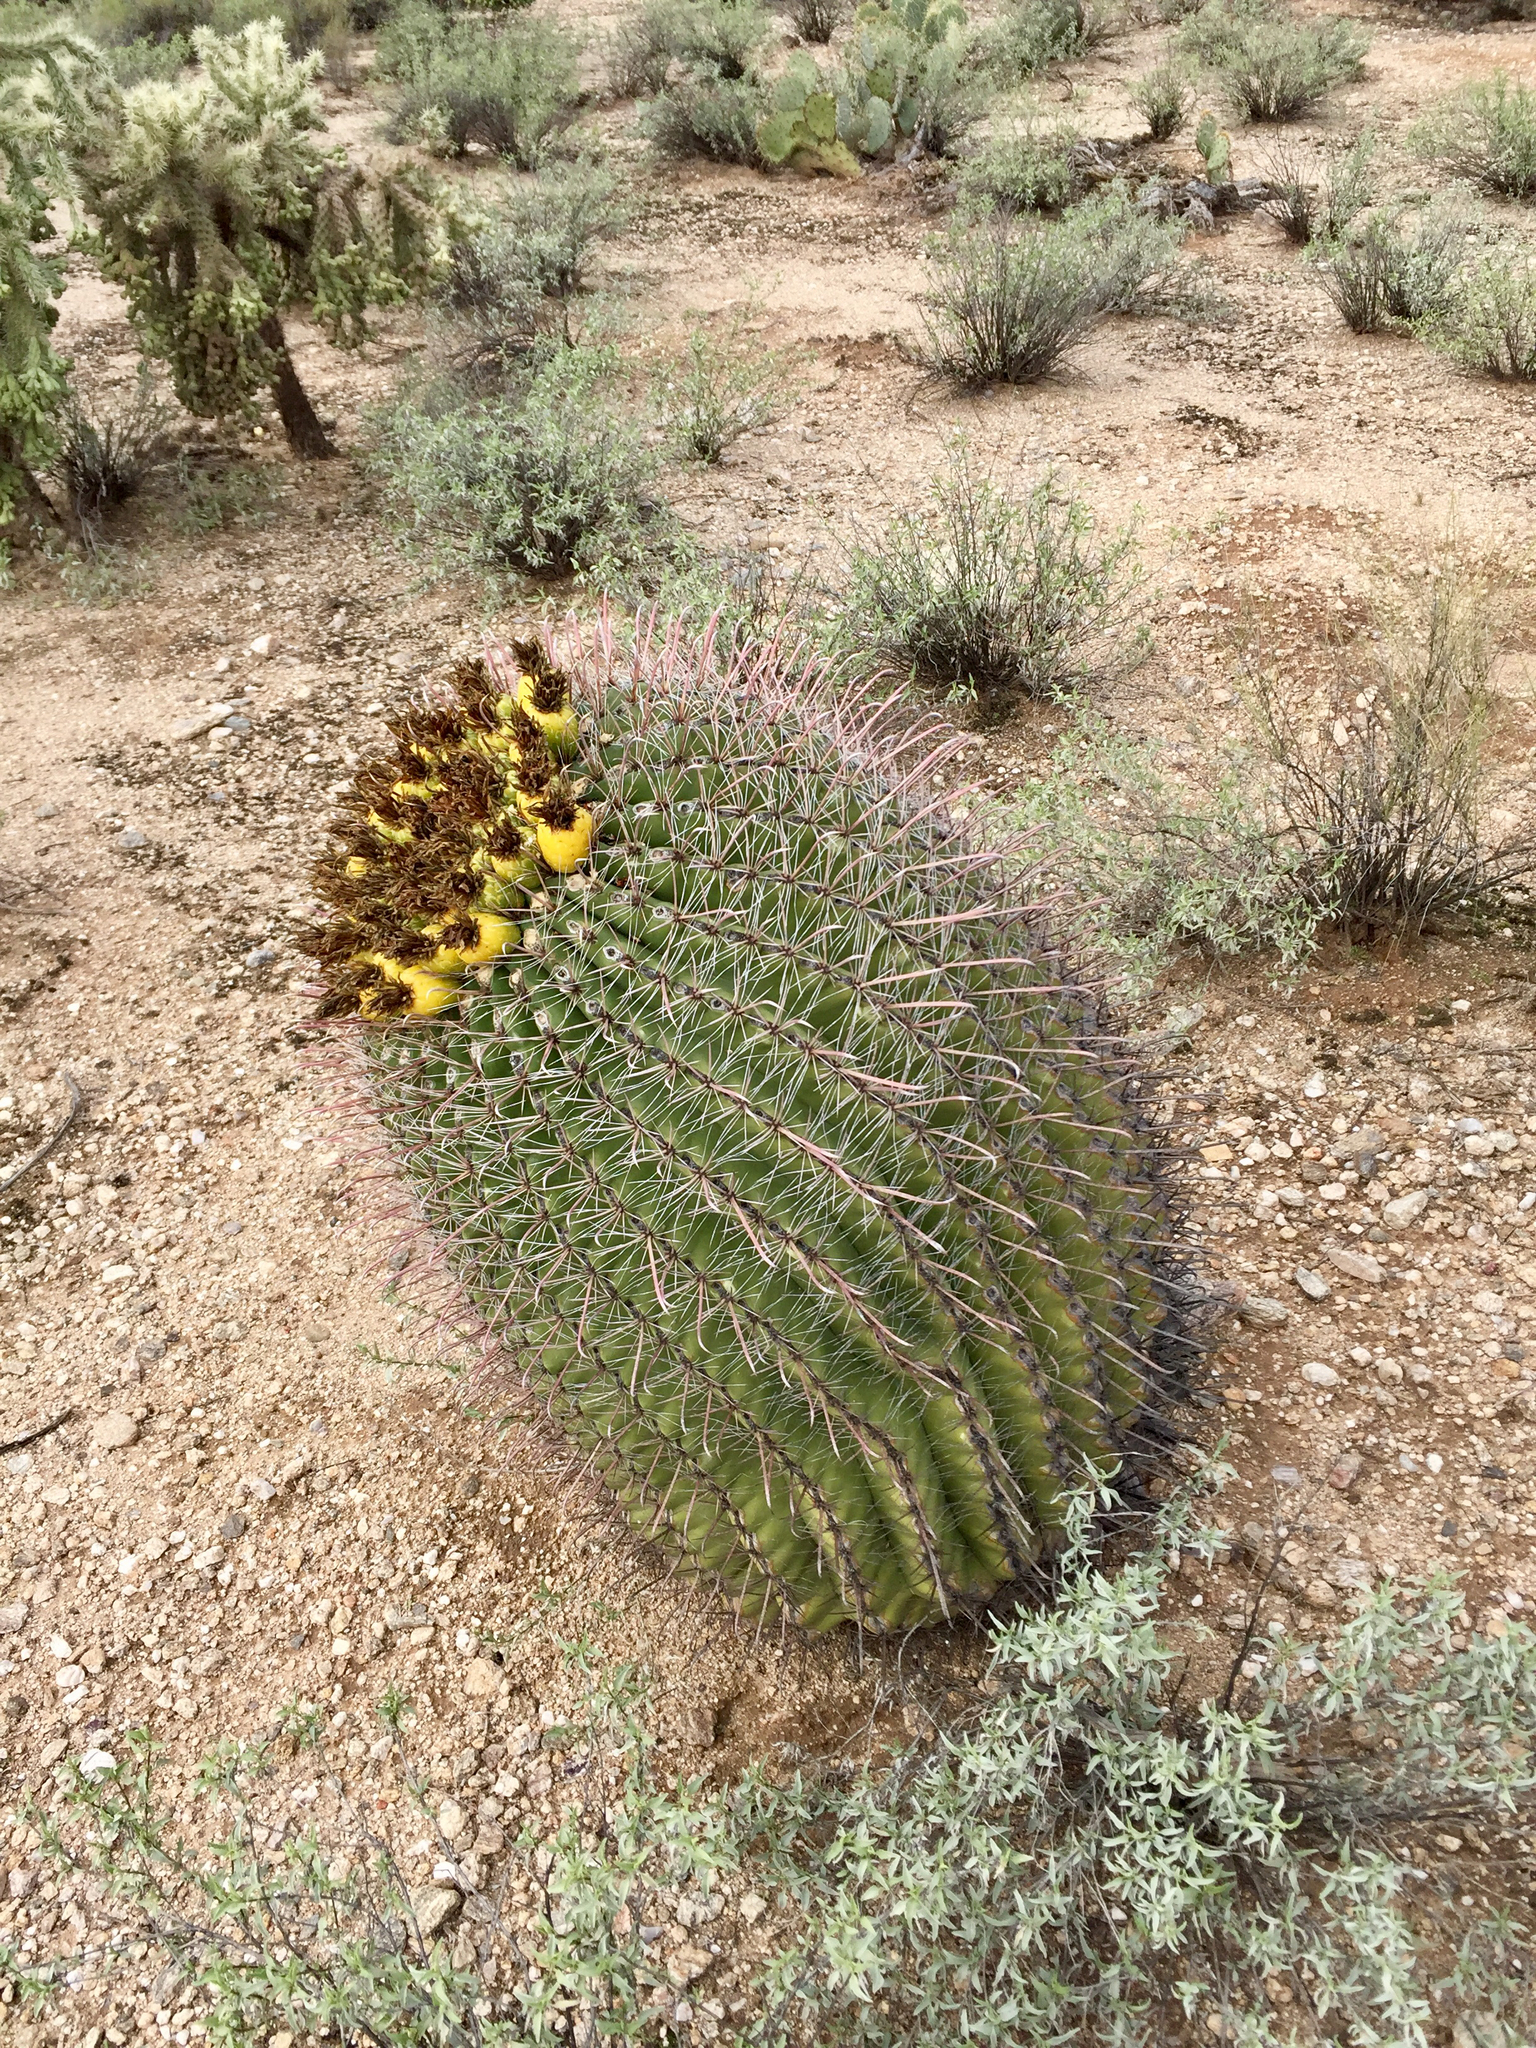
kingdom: Plantae
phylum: Tracheophyta
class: Magnoliopsida
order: Caryophyllales
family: Cactaceae
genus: Ferocactus
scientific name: Ferocactus wislizeni
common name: Candy barrel cactus
